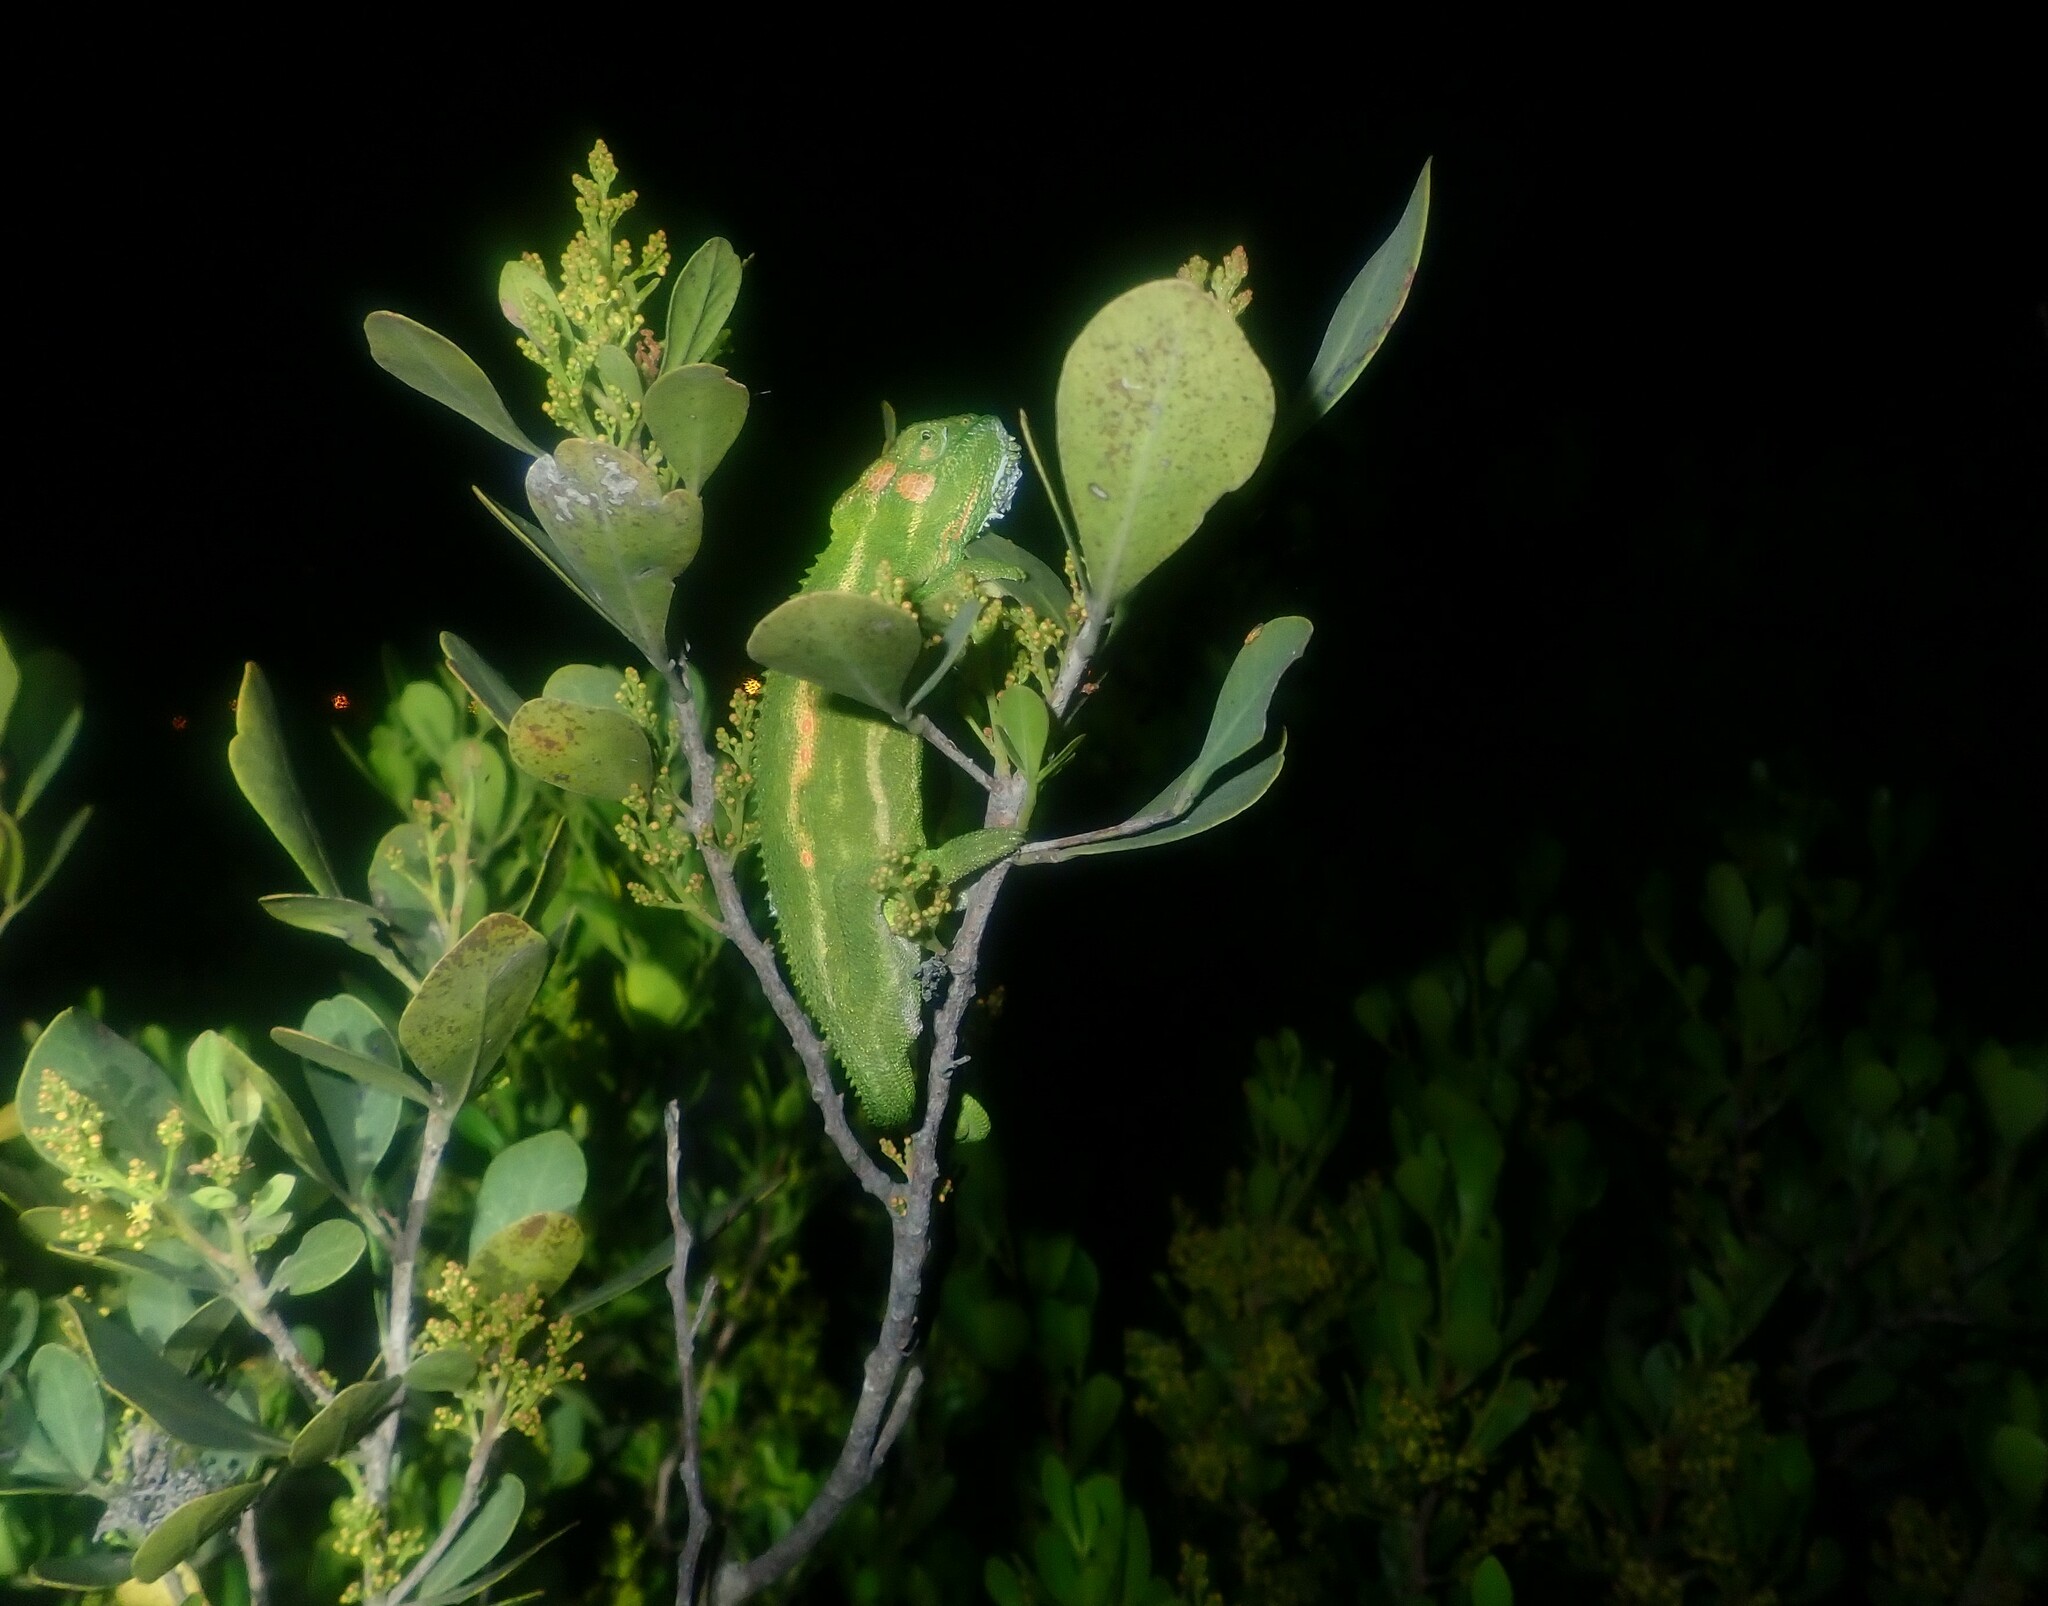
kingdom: Animalia
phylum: Chordata
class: Squamata
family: Chamaeleonidae
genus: Bradypodion
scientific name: Bradypodion pumilum
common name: Cape dwarf chameleon
